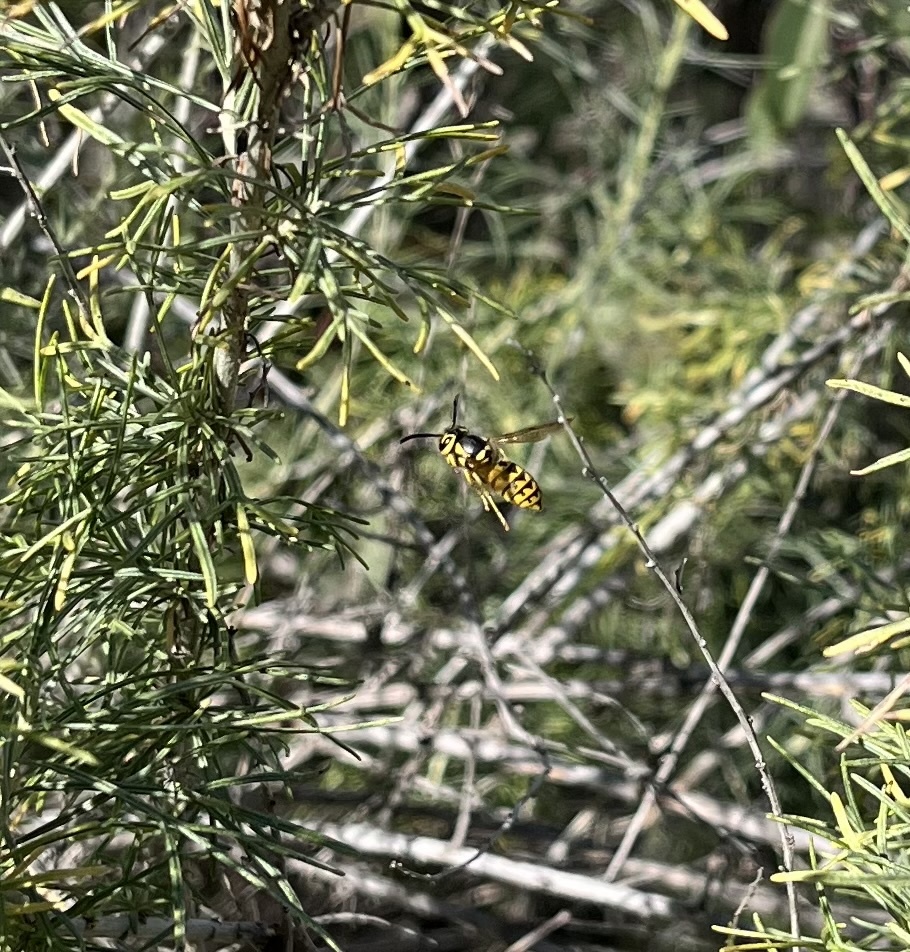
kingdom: Animalia
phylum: Arthropoda
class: Insecta
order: Hymenoptera
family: Vespidae
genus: Vespula
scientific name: Vespula pensylvanica
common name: Western yellowjacket
